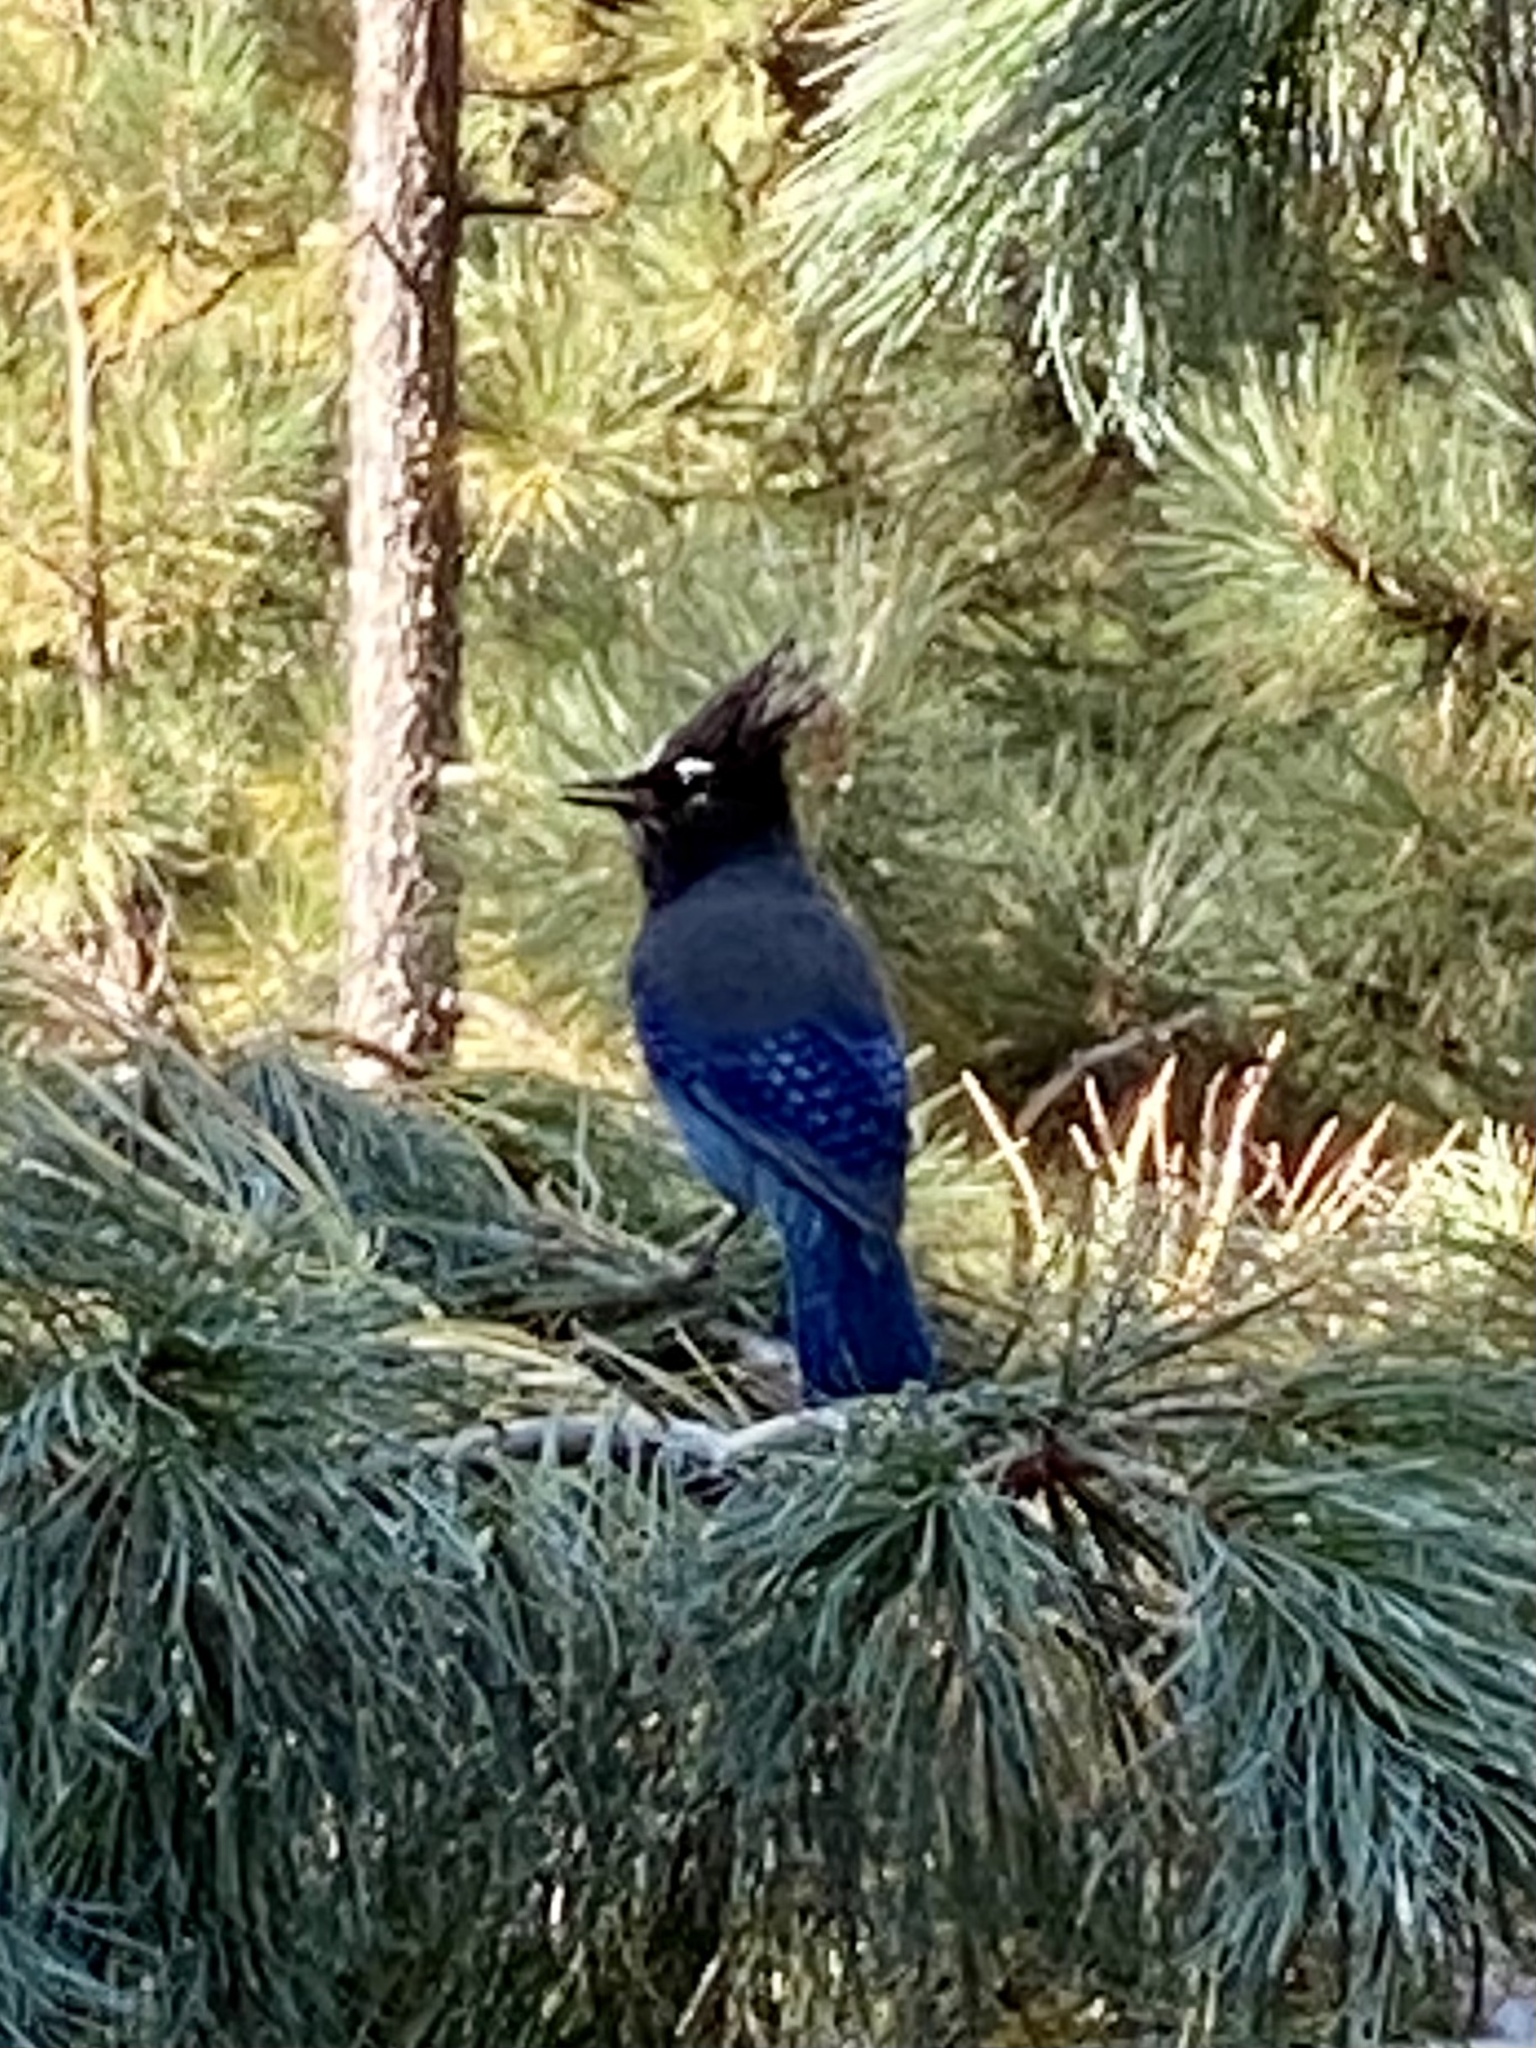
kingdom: Animalia
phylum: Chordata
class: Aves
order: Passeriformes
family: Corvidae
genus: Cyanocitta
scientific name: Cyanocitta stelleri
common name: Steller's jay
